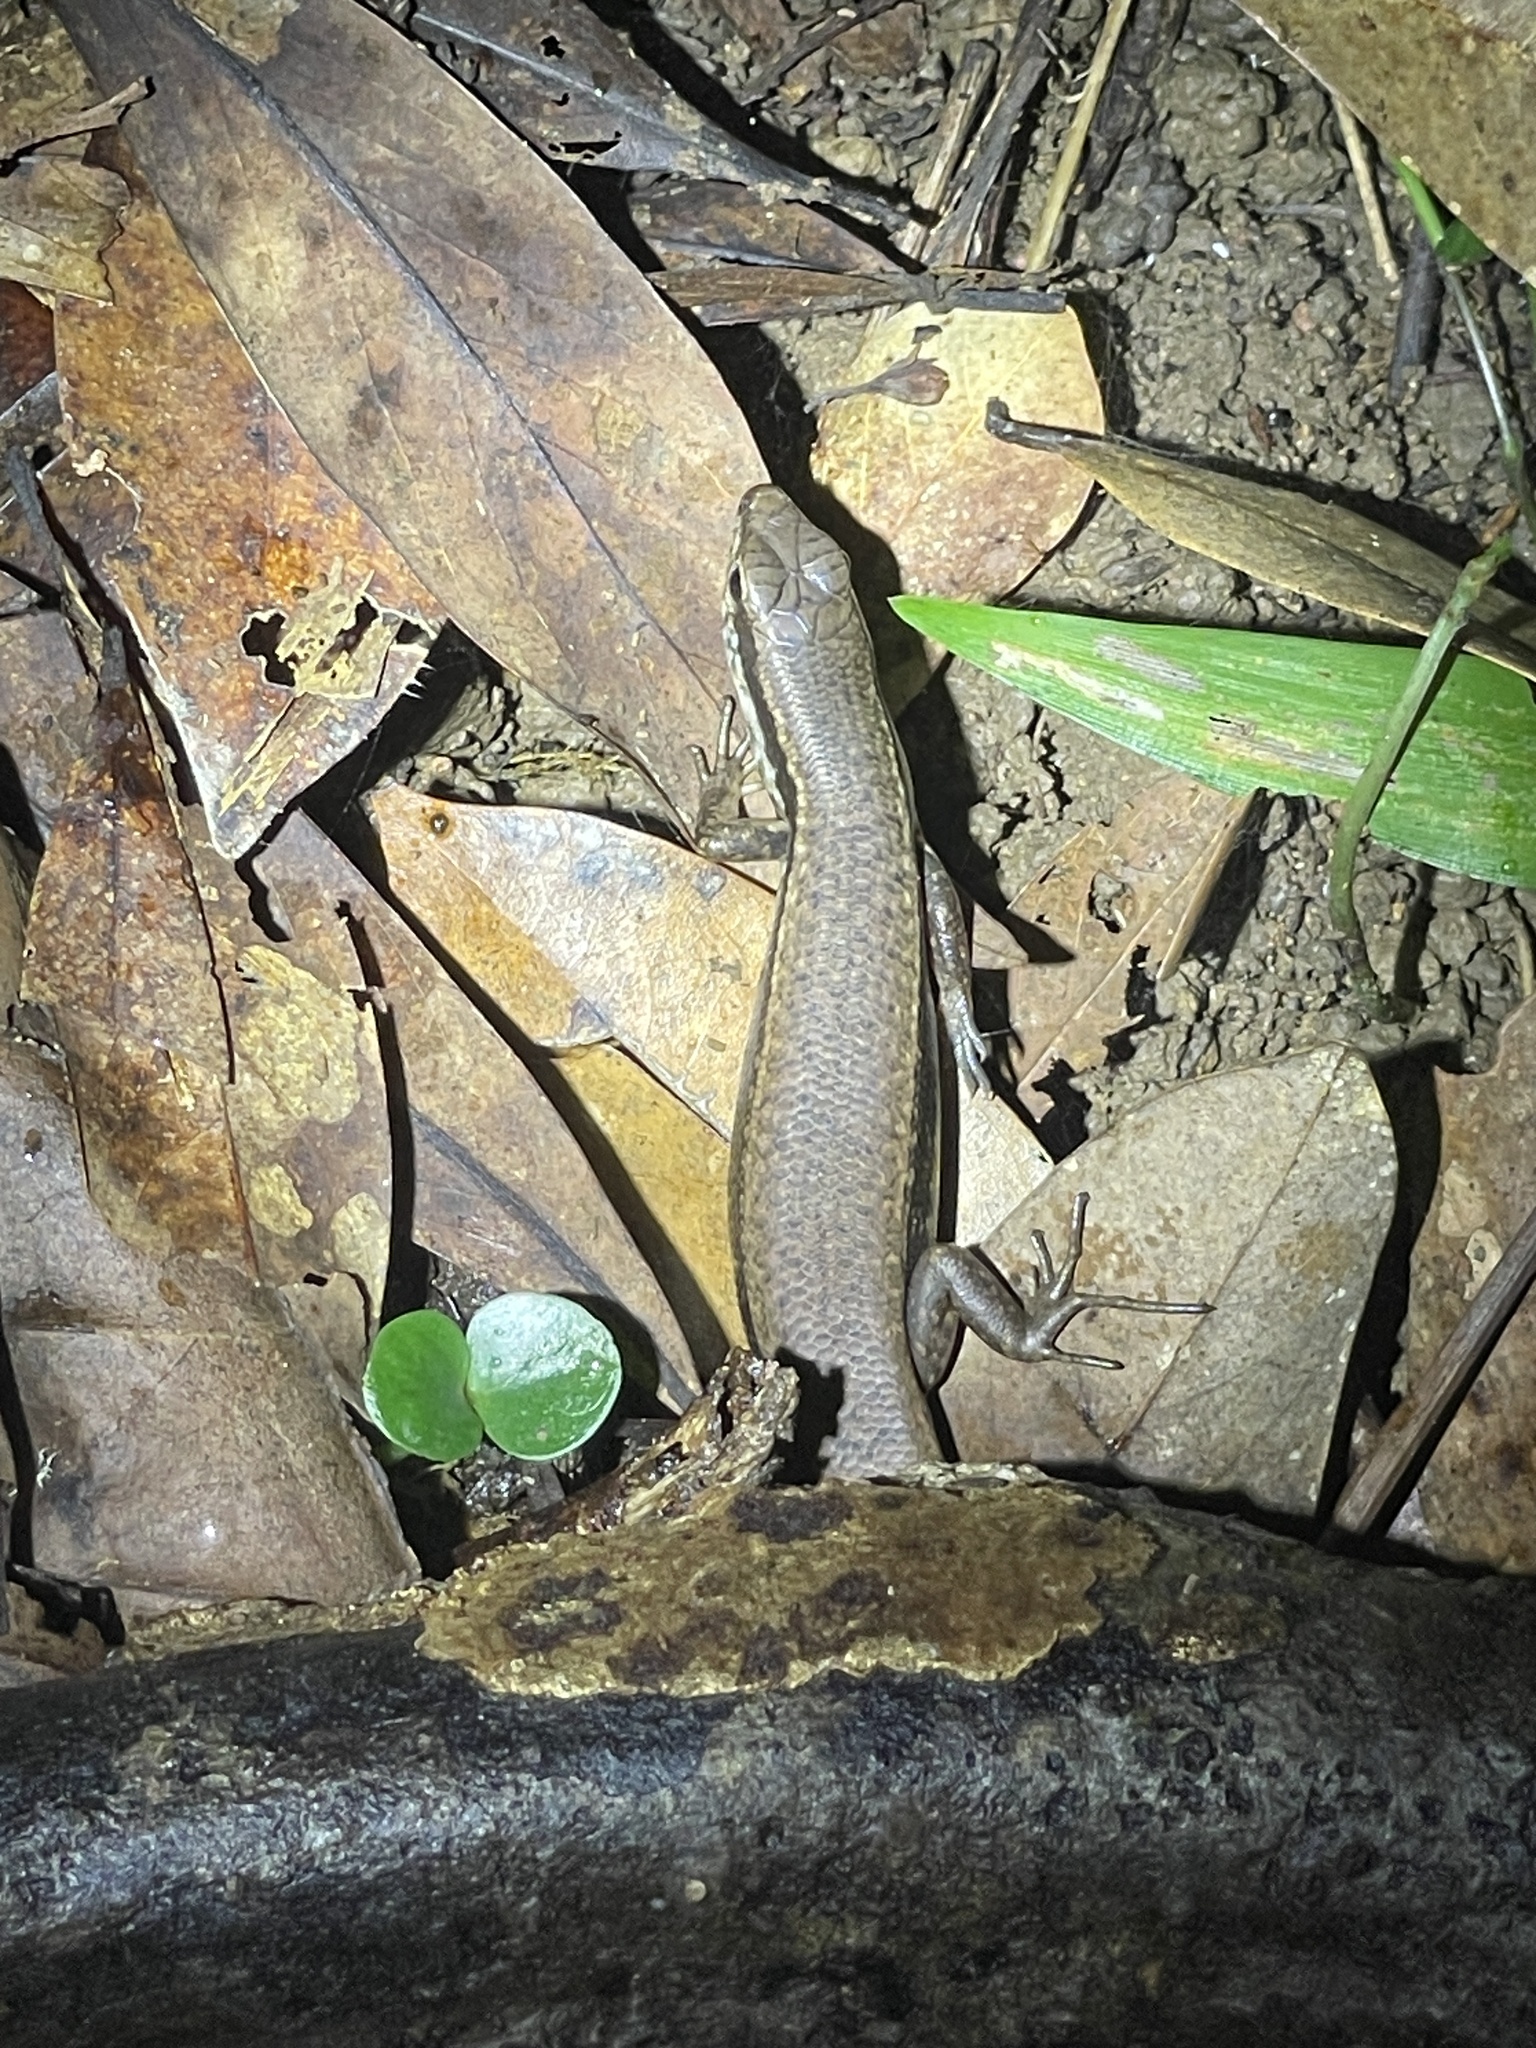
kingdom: Animalia
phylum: Chordata
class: Squamata
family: Scincidae
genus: Sphenomorphus
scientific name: Sphenomorphus indicus
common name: Himalayan forest skink
